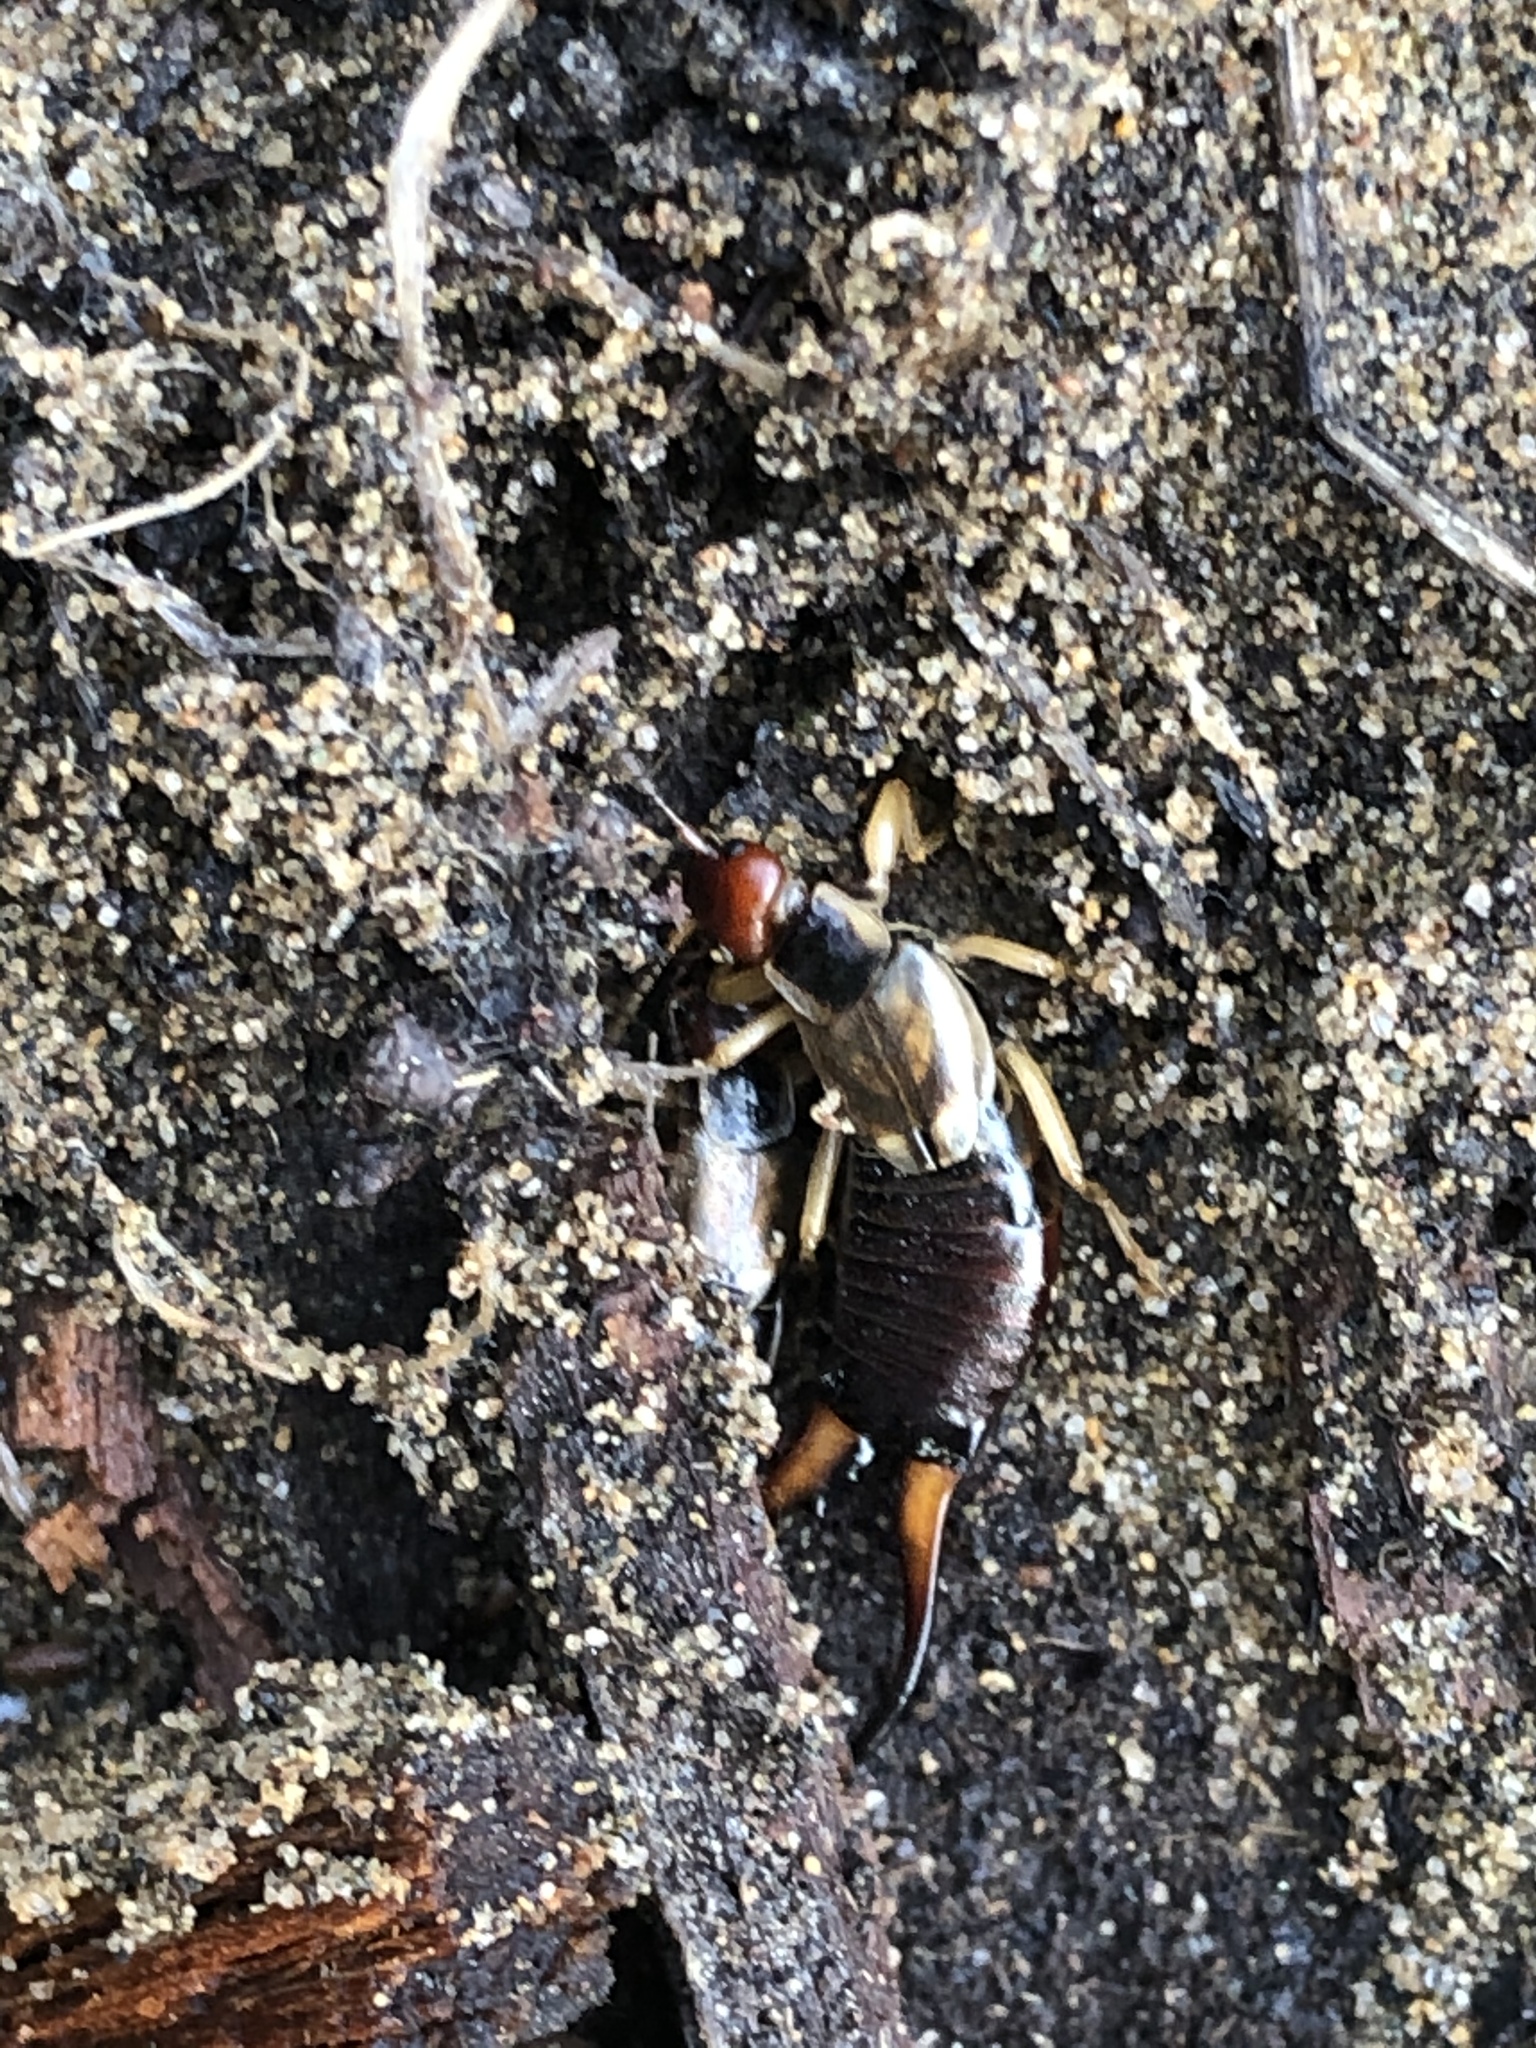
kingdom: Animalia
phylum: Arthropoda
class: Insecta
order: Dermaptera
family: Forficulidae
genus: Forficula
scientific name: Forficula
